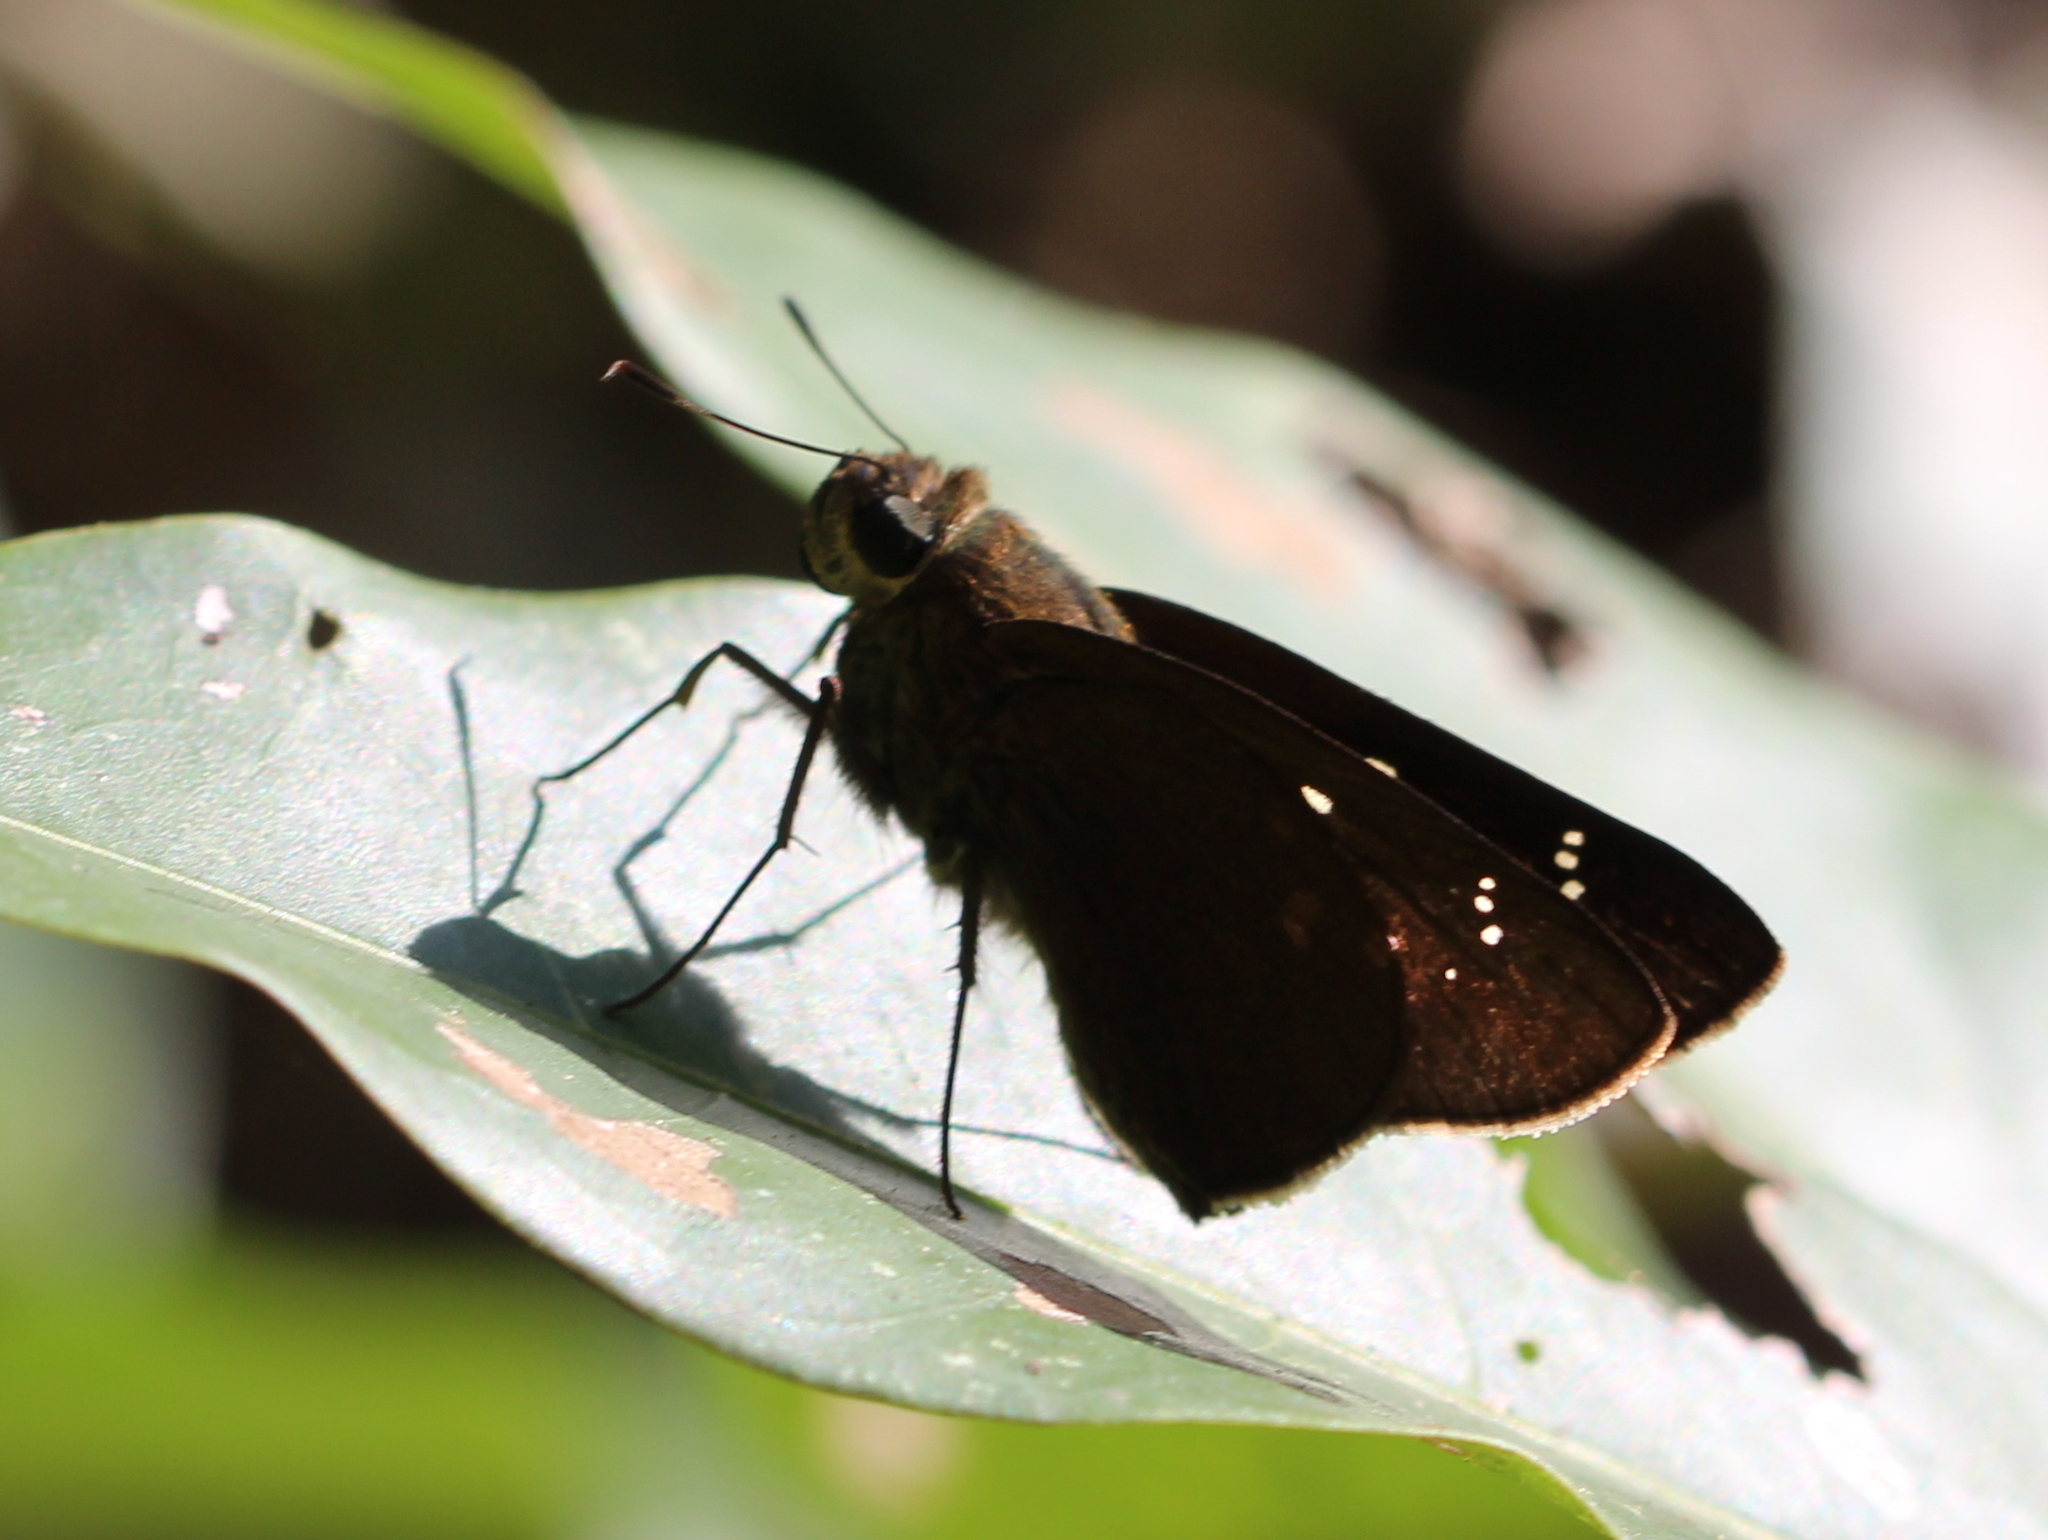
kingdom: Animalia
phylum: Arthropoda
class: Insecta
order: Lepidoptera
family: Hesperiidae
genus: Baoris
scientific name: Baoris farri
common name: Paintbrush swift
